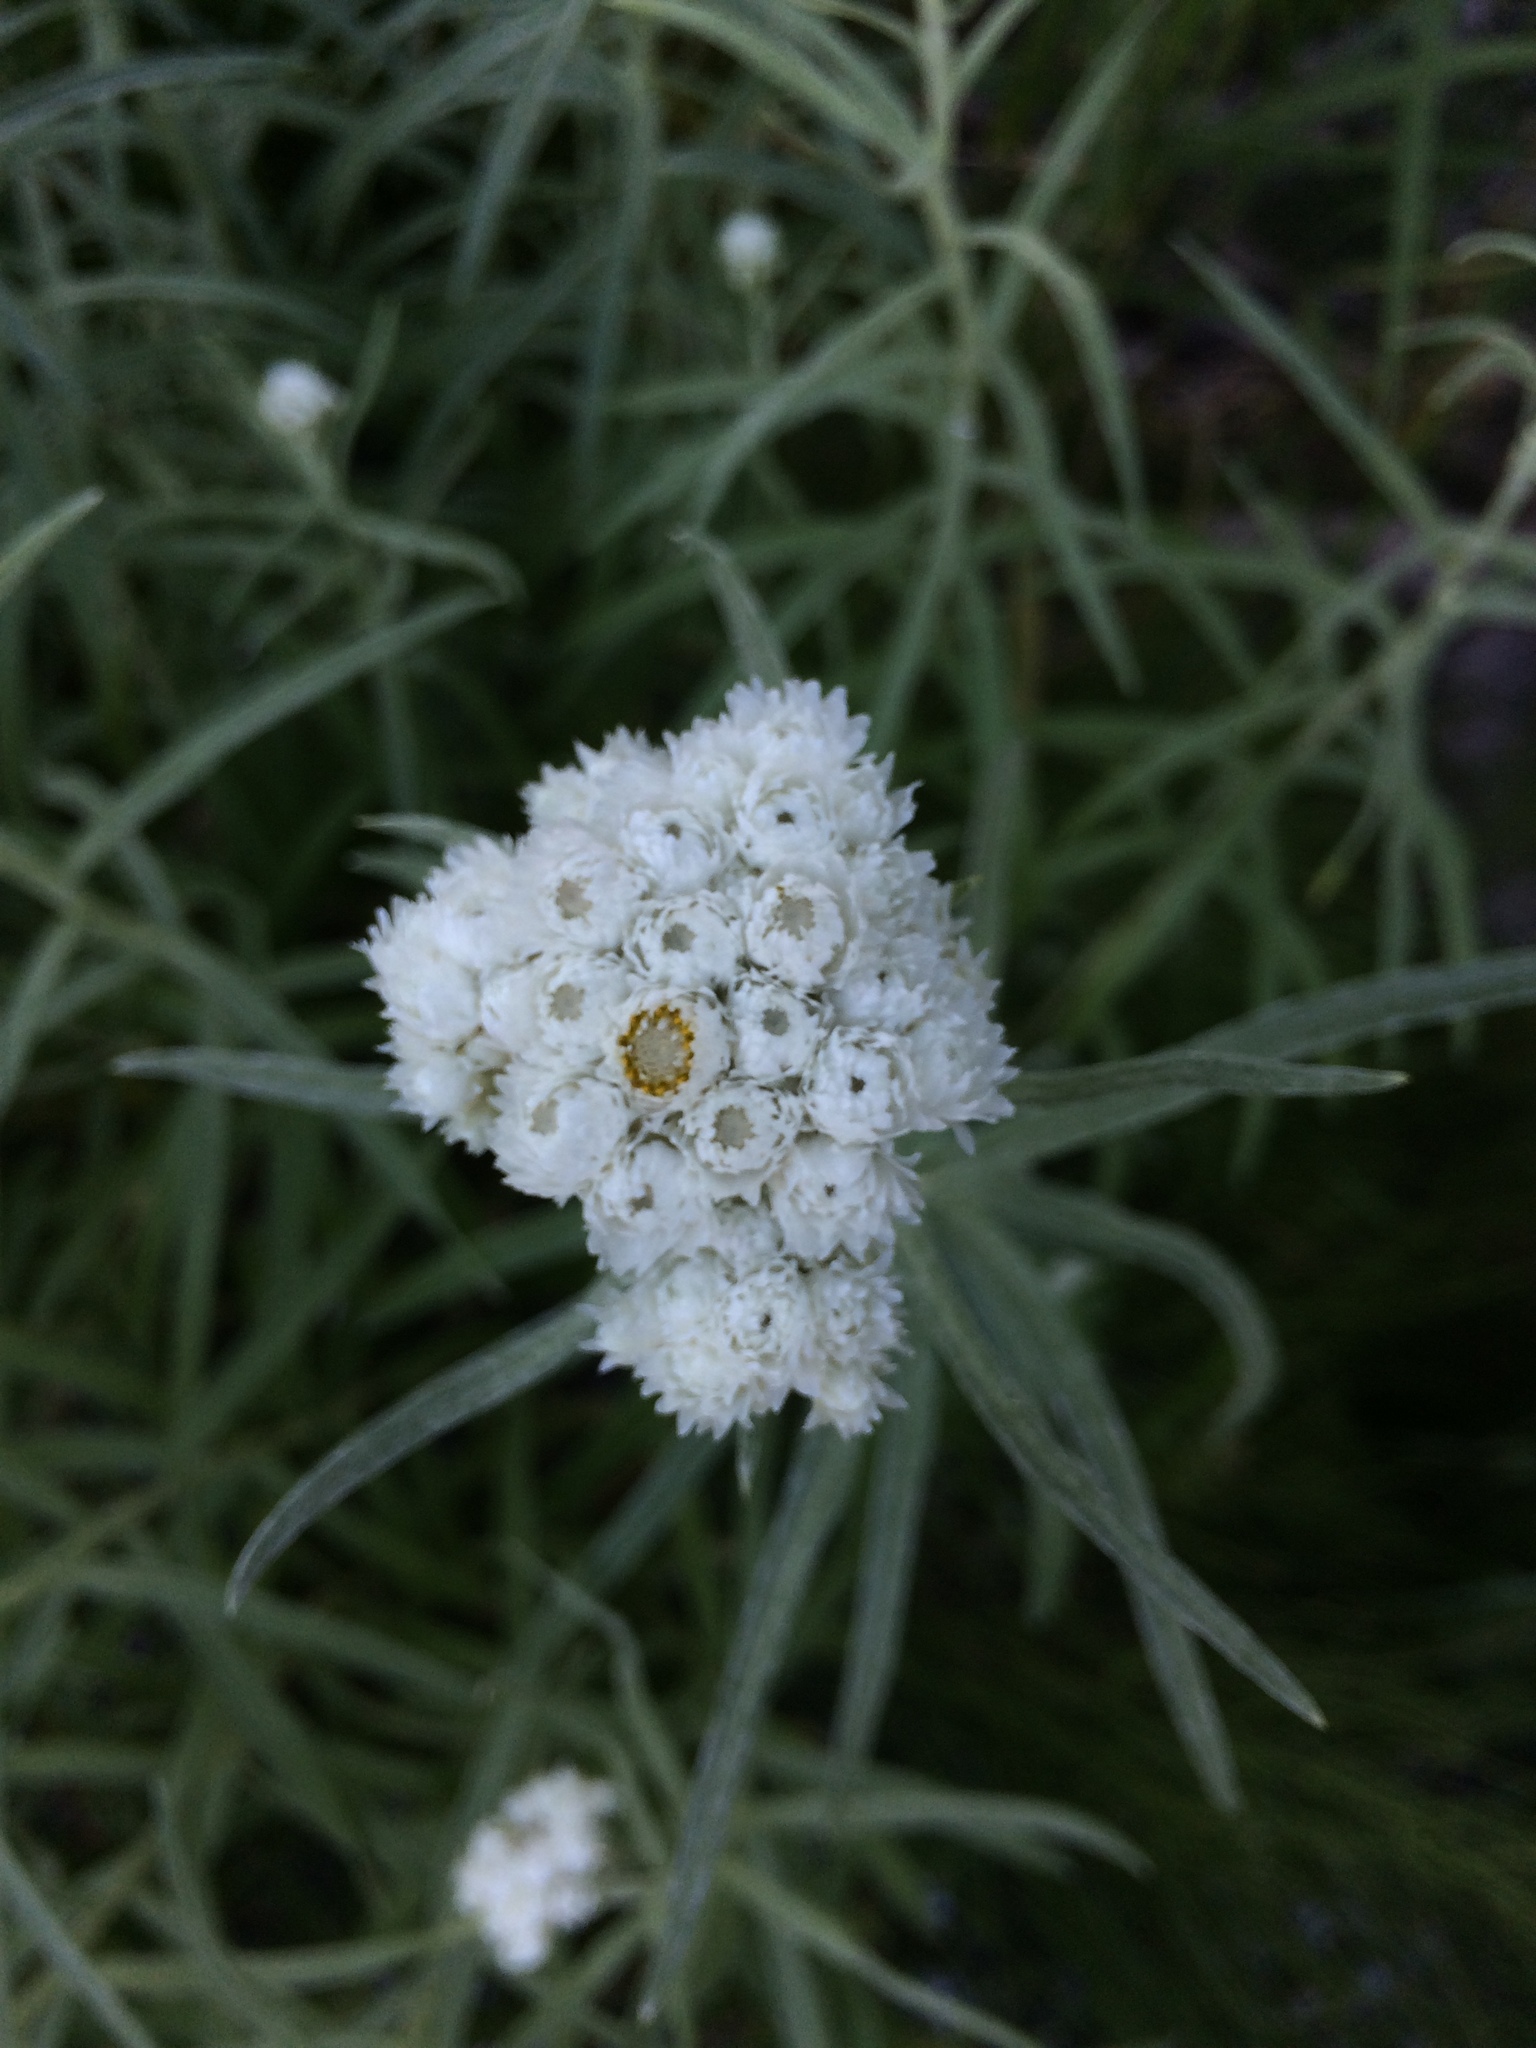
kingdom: Plantae
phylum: Tracheophyta
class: Magnoliopsida
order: Asterales
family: Asteraceae
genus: Anaphalis
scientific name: Anaphalis margaritacea
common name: Pearly everlasting
